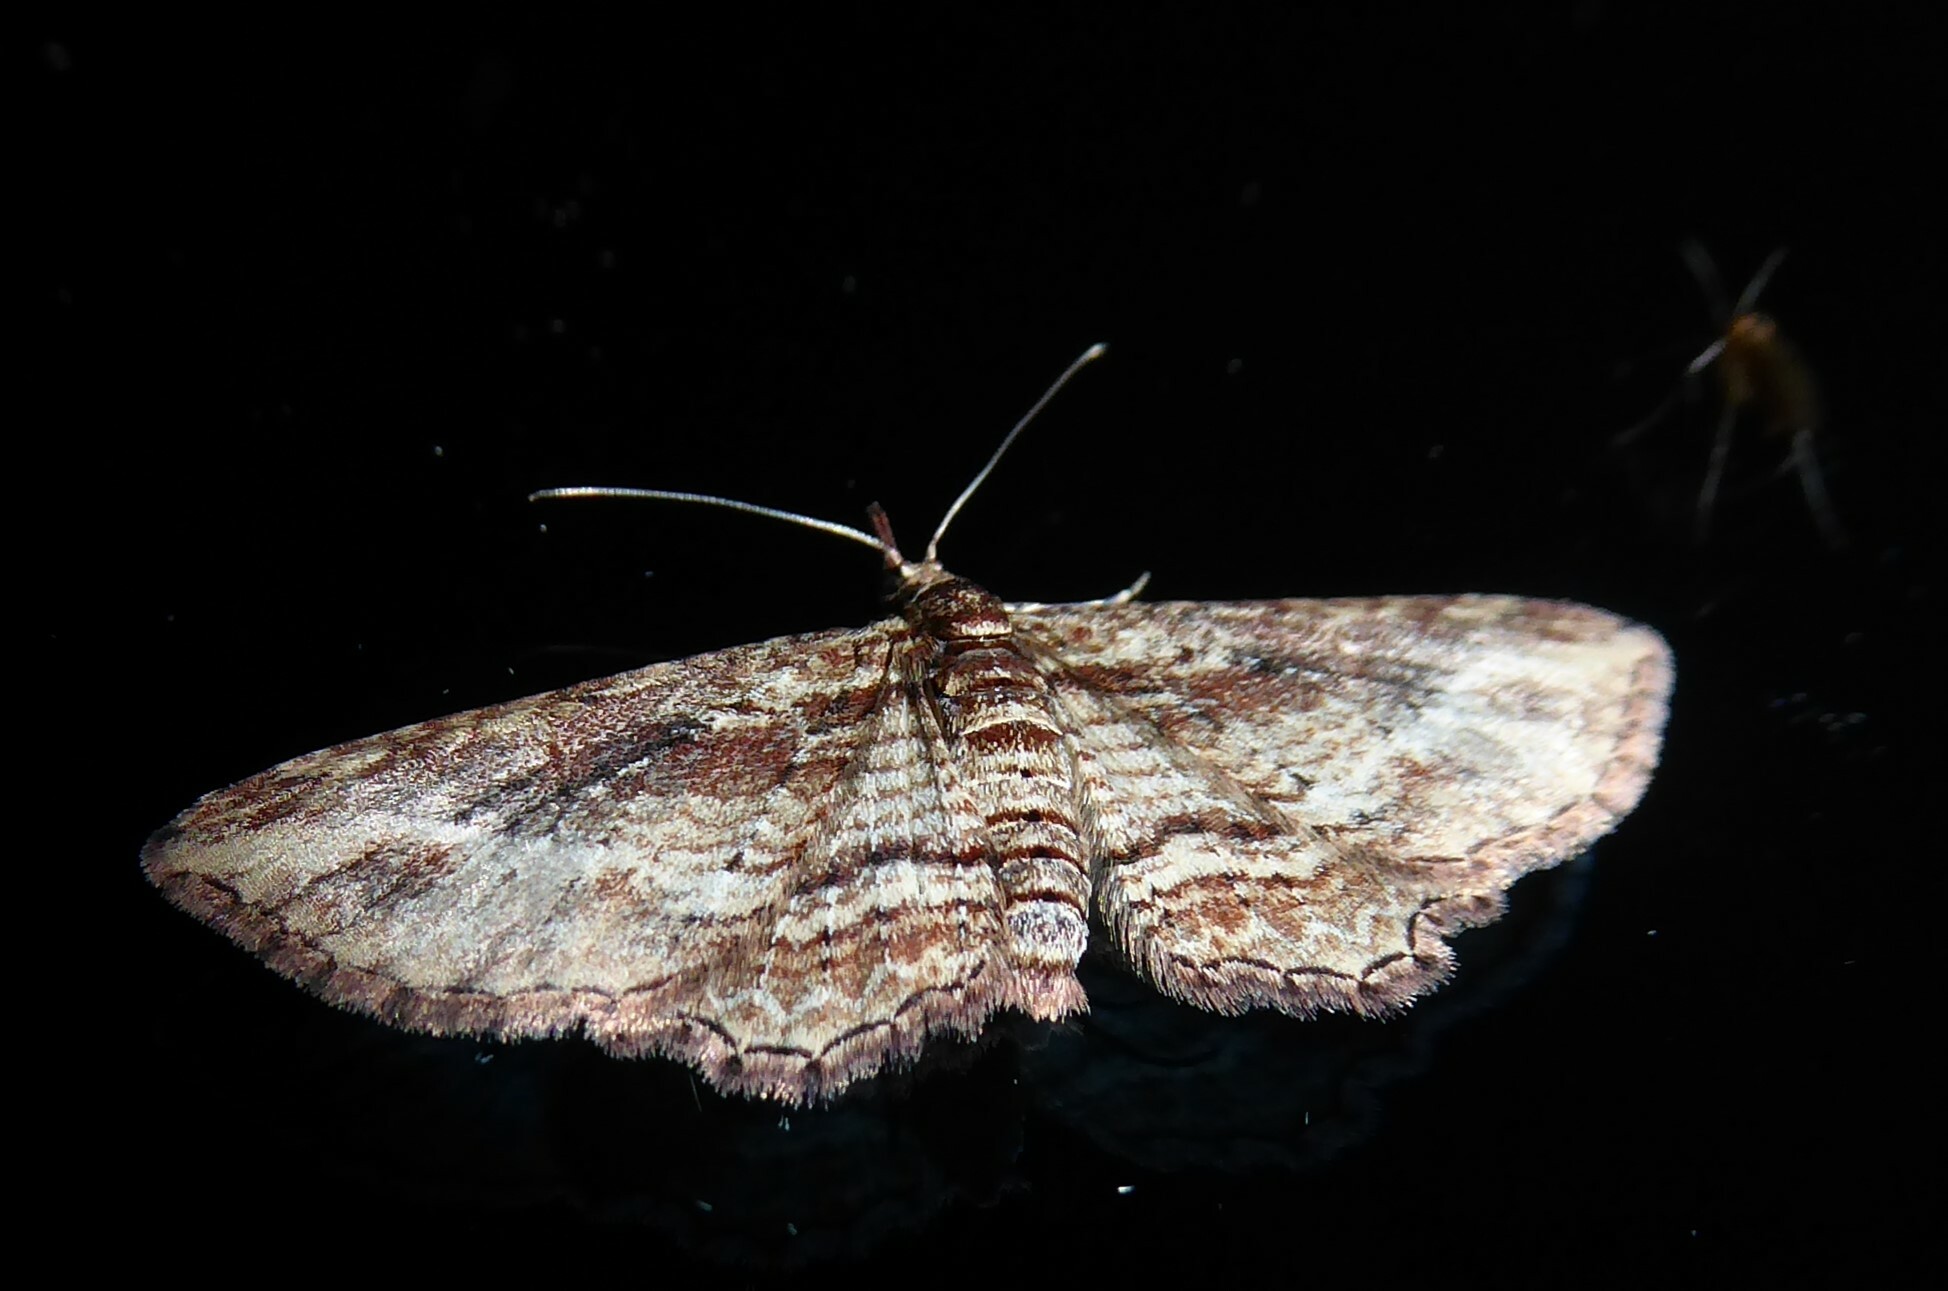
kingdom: Animalia
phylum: Arthropoda
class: Insecta
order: Lepidoptera
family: Geometridae
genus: Chloroclystis
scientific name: Chloroclystis filata
